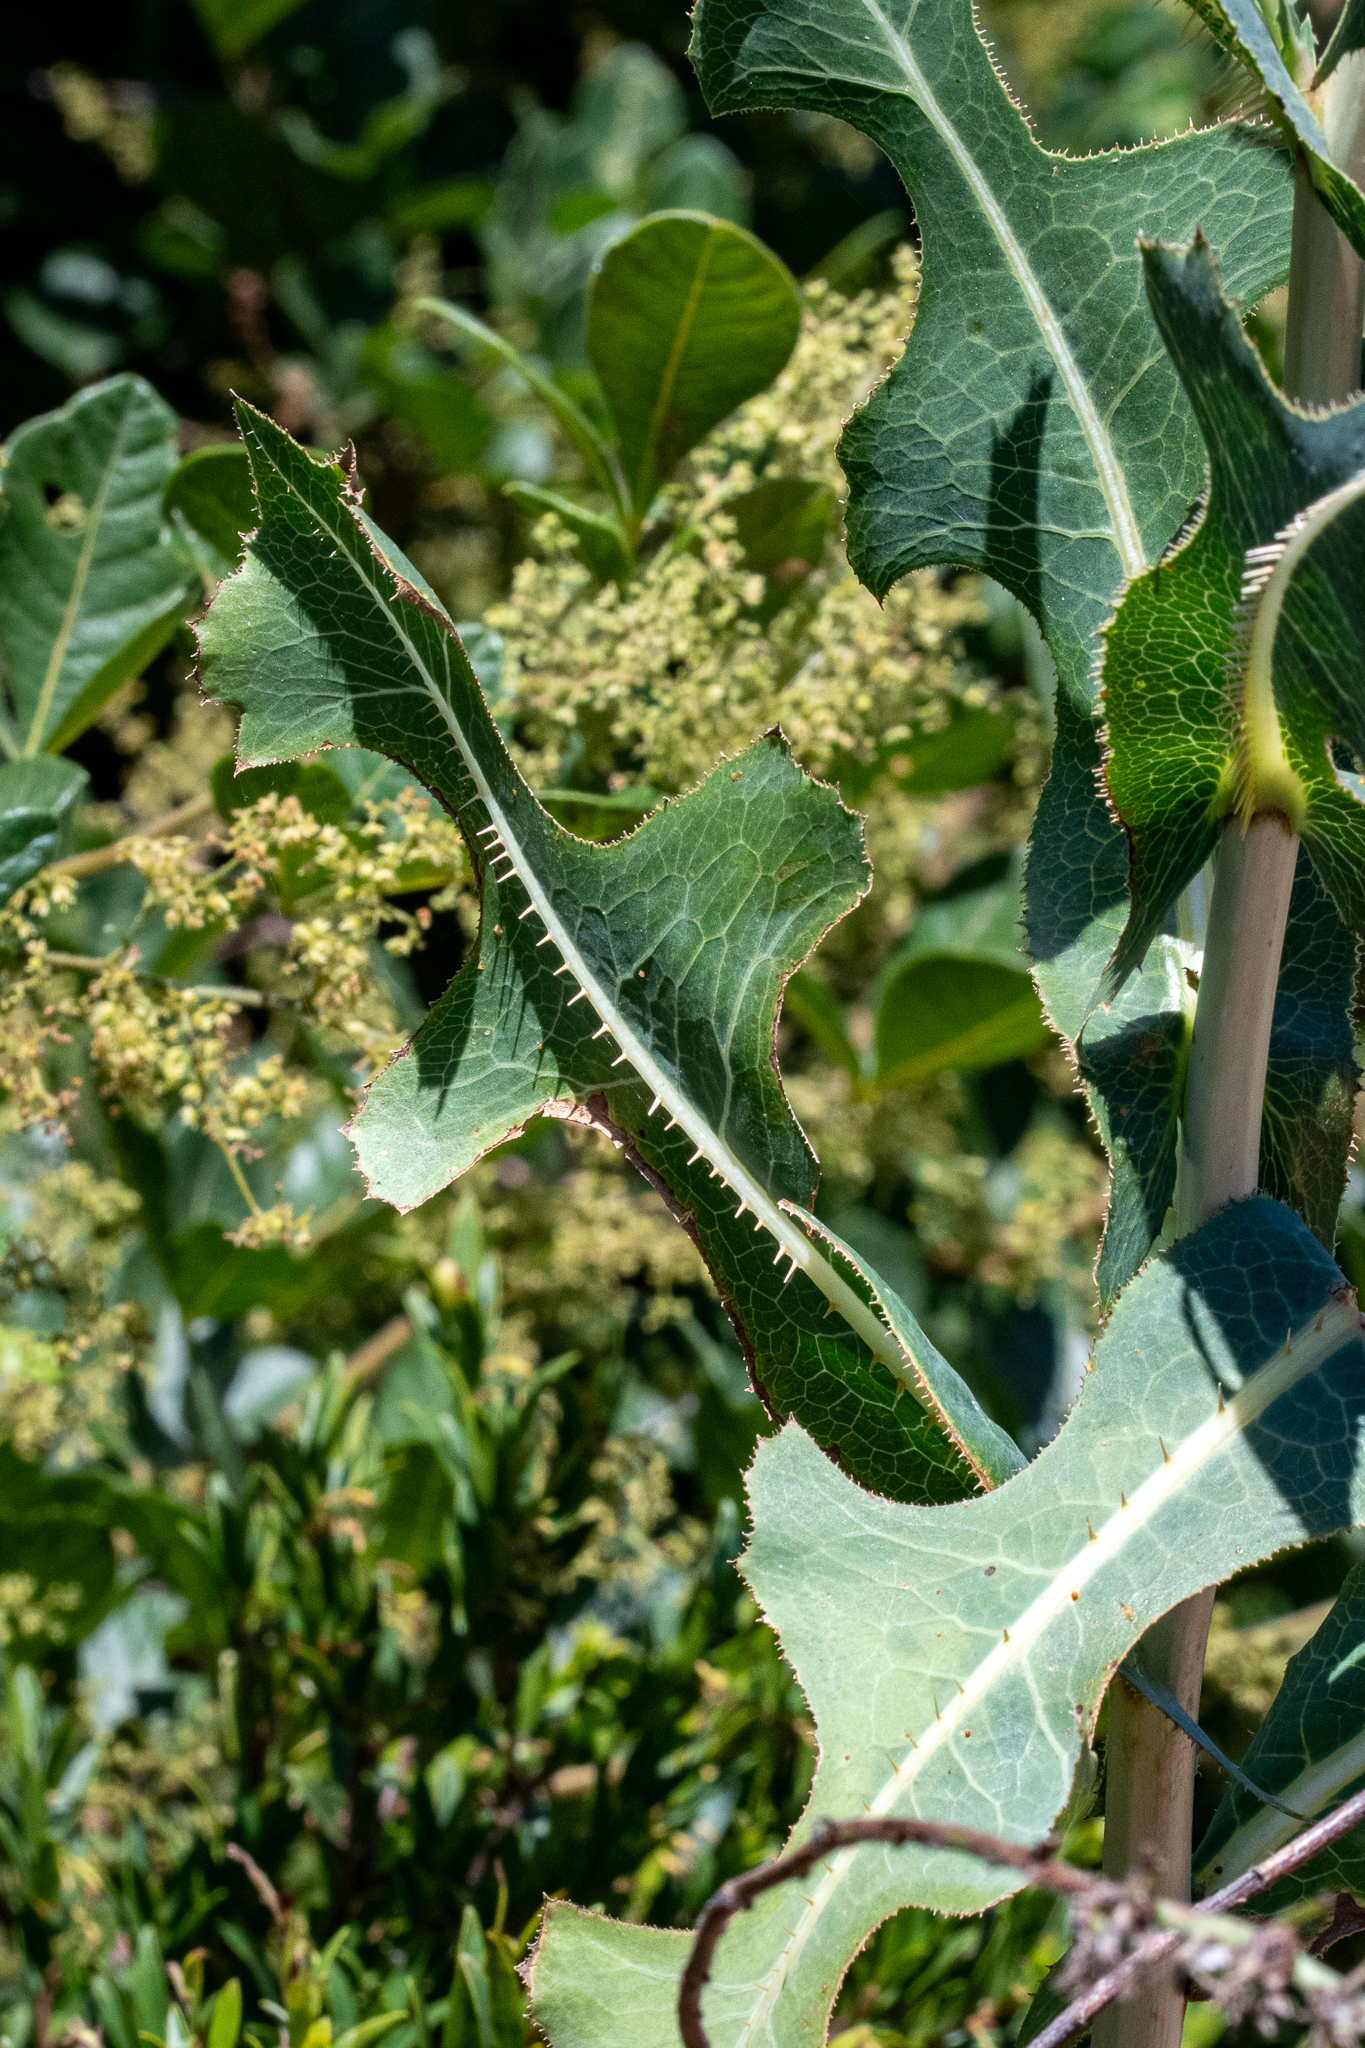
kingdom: Plantae
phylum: Tracheophyta
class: Magnoliopsida
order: Asterales
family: Asteraceae
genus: Lactuca
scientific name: Lactuca serriola
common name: Prickly lettuce
